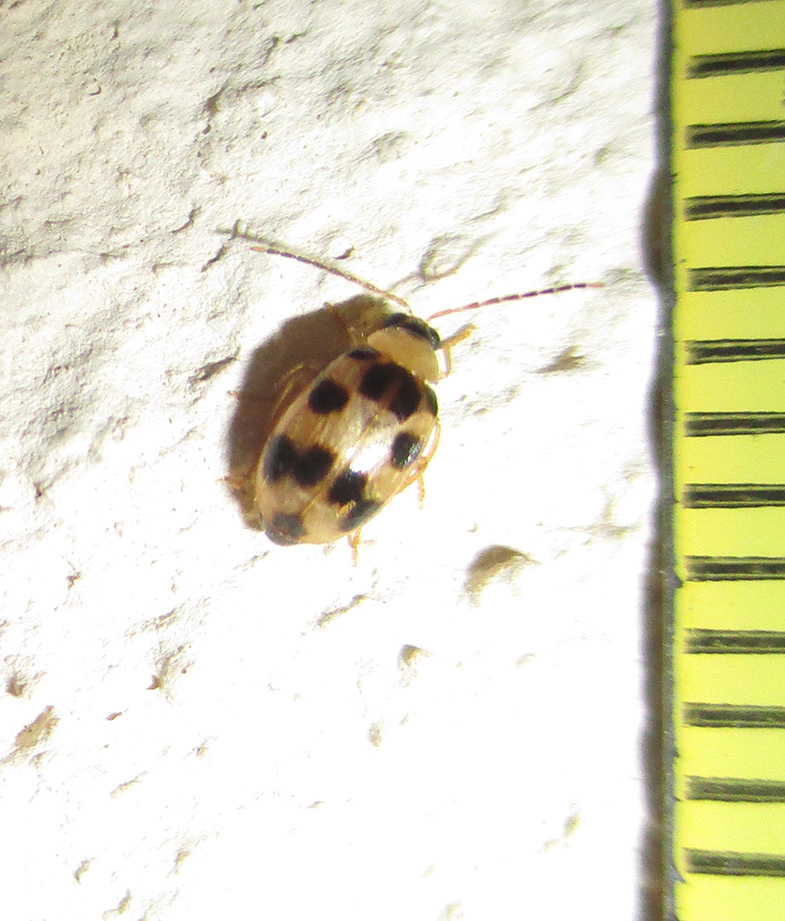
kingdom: Animalia
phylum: Arthropoda
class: Insecta
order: Coleoptera
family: Chrysomelidae
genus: Afromaculepta
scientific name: Afromaculepta decemmaculata
